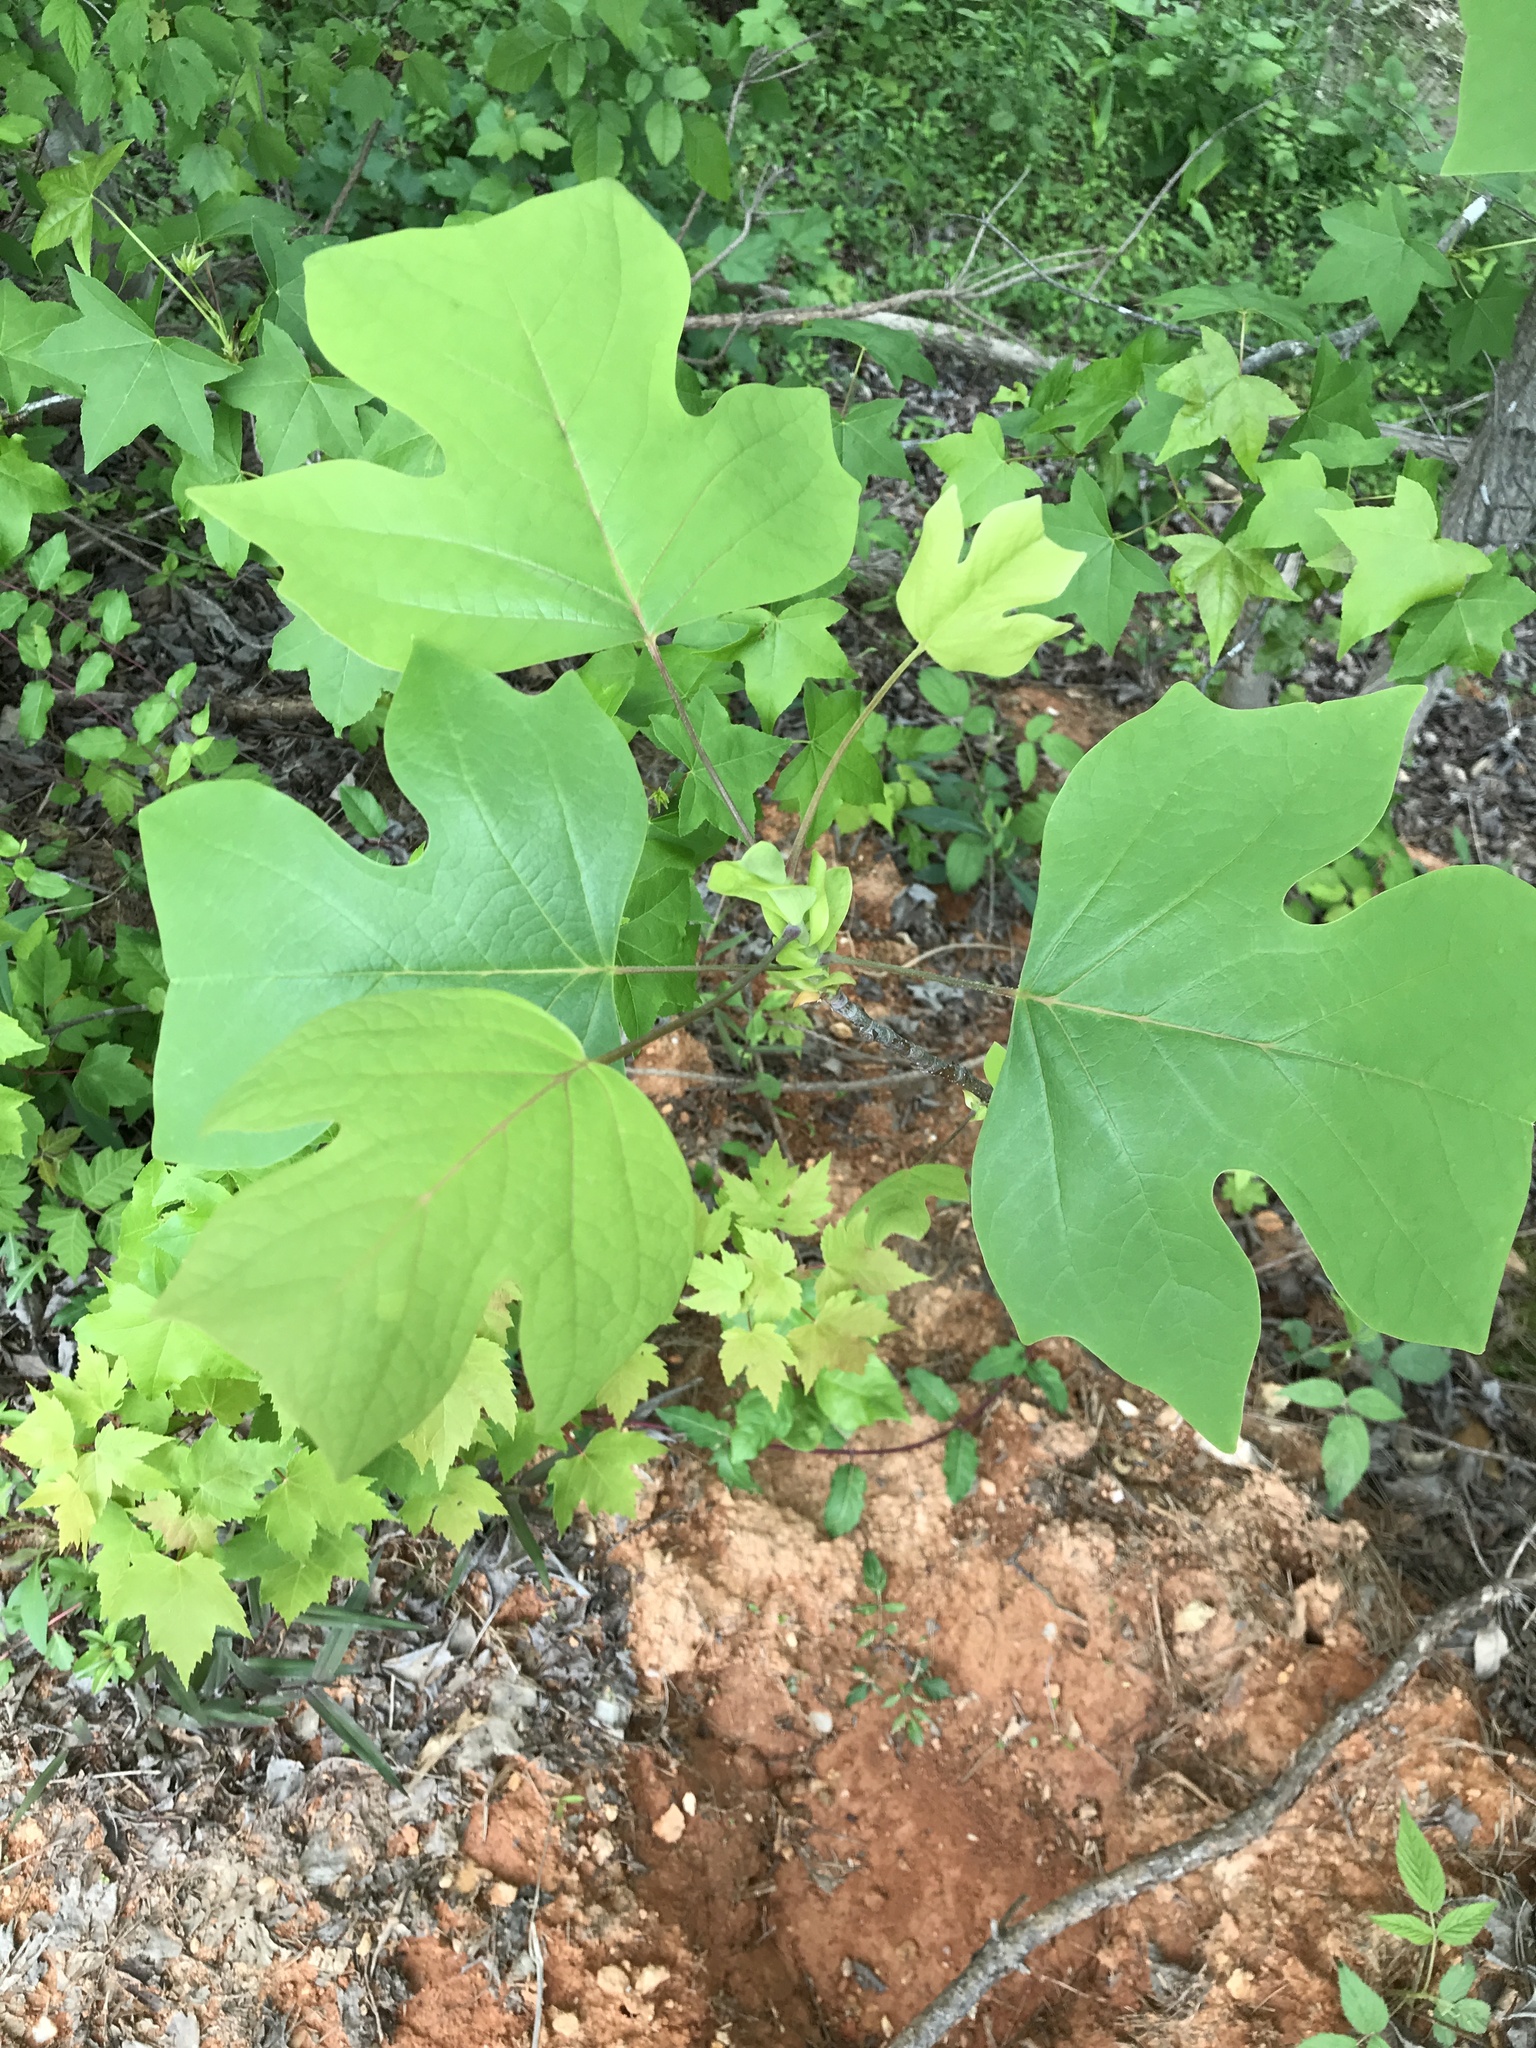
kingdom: Plantae
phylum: Tracheophyta
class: Magnoliopsida
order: Magnoliales
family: Magnoliaceae
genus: Liriodendron
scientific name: Liriodendron tulipifera
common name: Tulip tree
